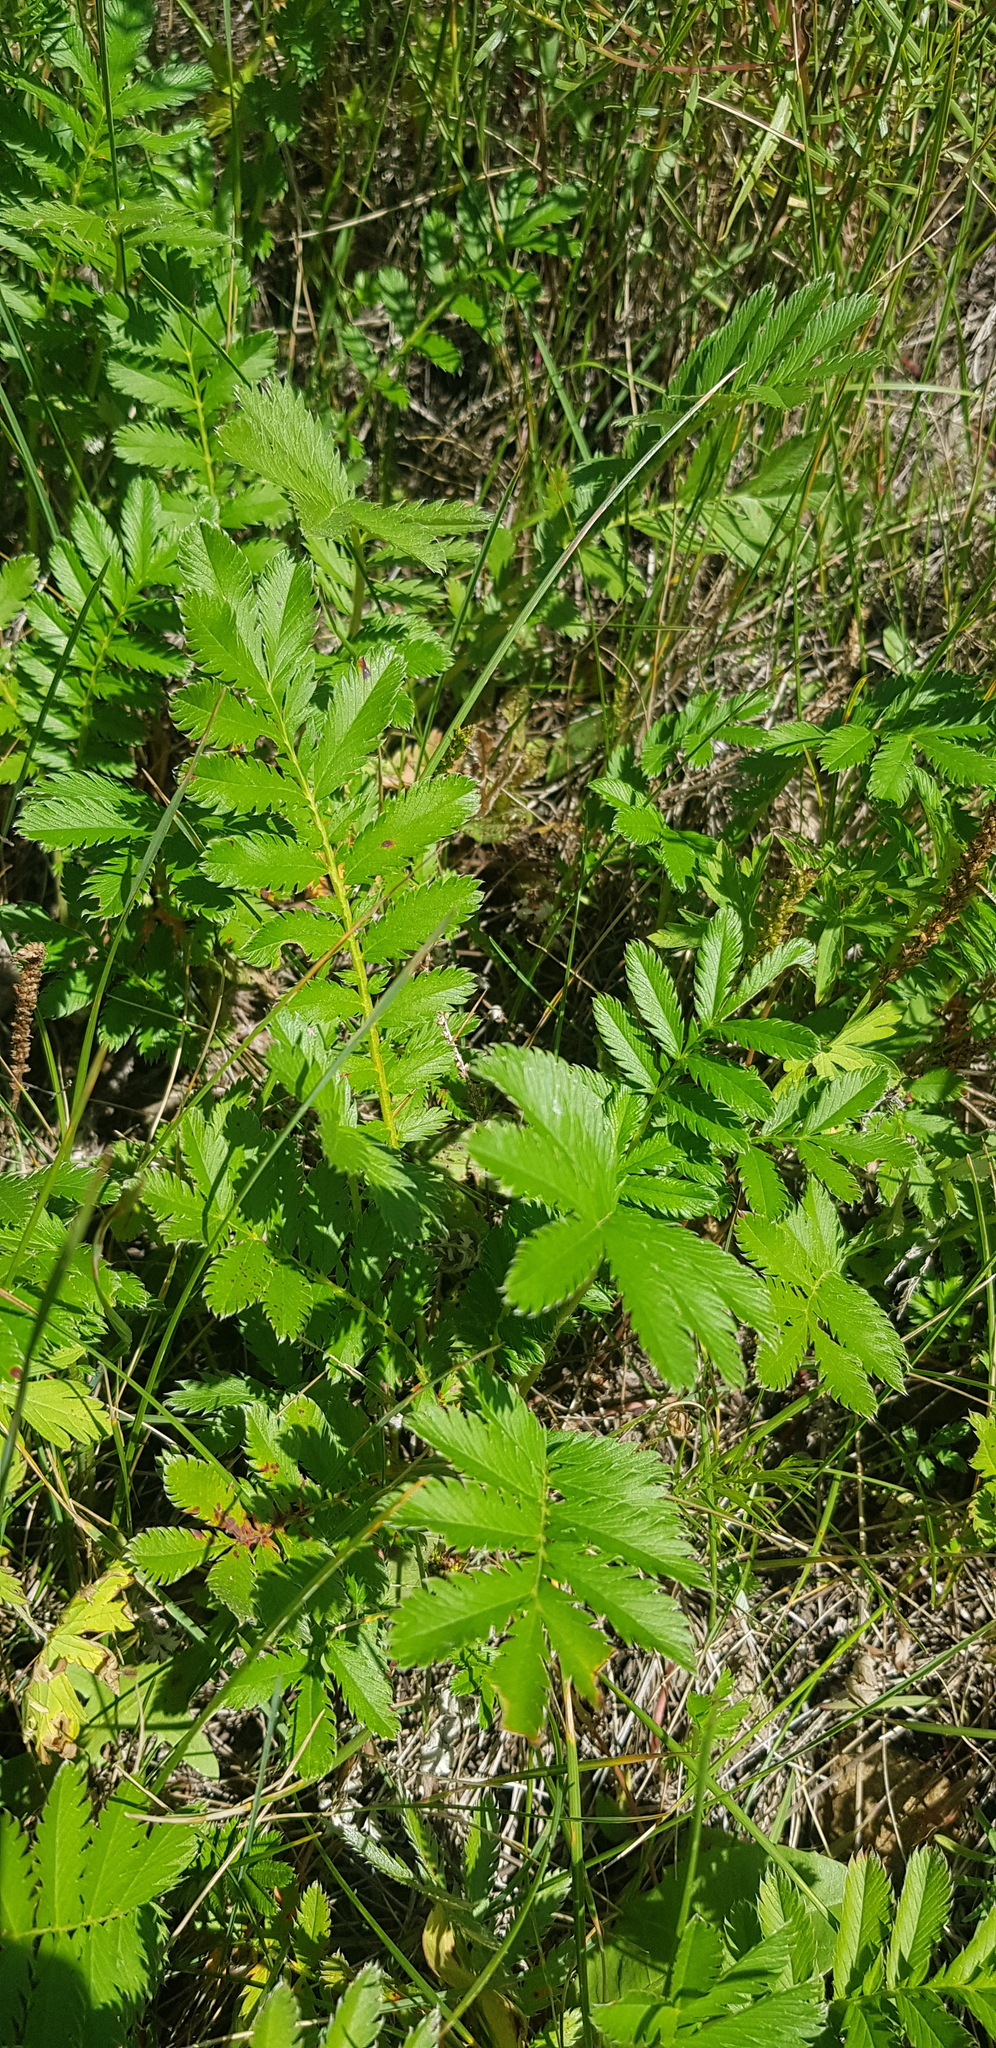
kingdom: Plantae
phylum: Tracheophyta
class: Magnoliopsida
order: Rosales
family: Rosaceae
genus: Argentina
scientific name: Argentina anserina
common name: Common silverweed
